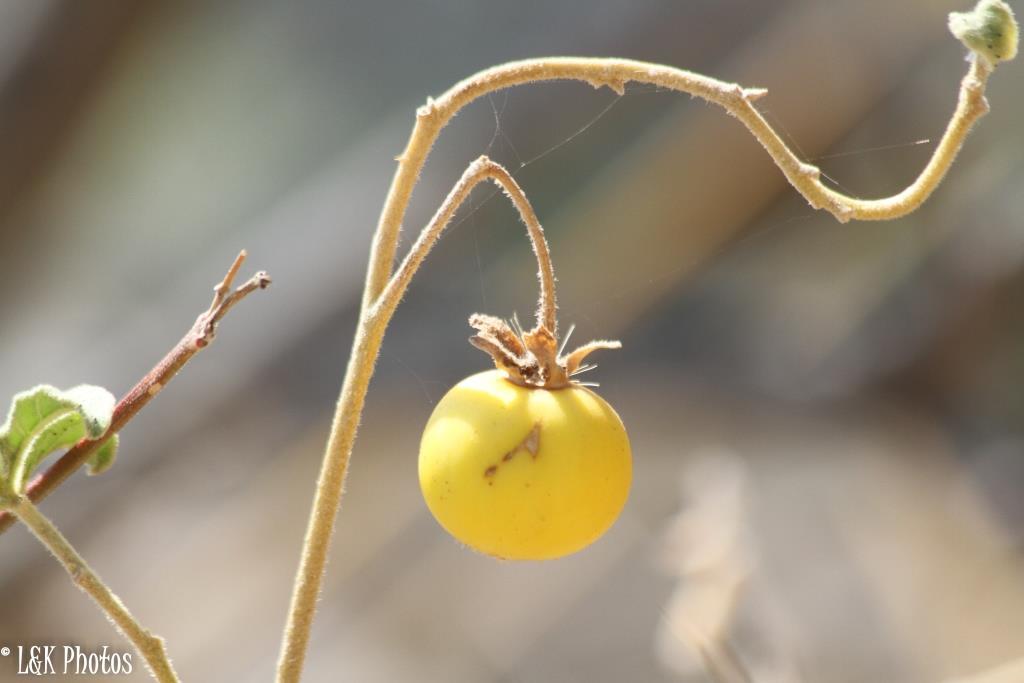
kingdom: Plantae
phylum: Tracheophyta
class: Magnoliopsida
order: Solanales
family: Solanaceae
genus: Solanum
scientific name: Solanum
